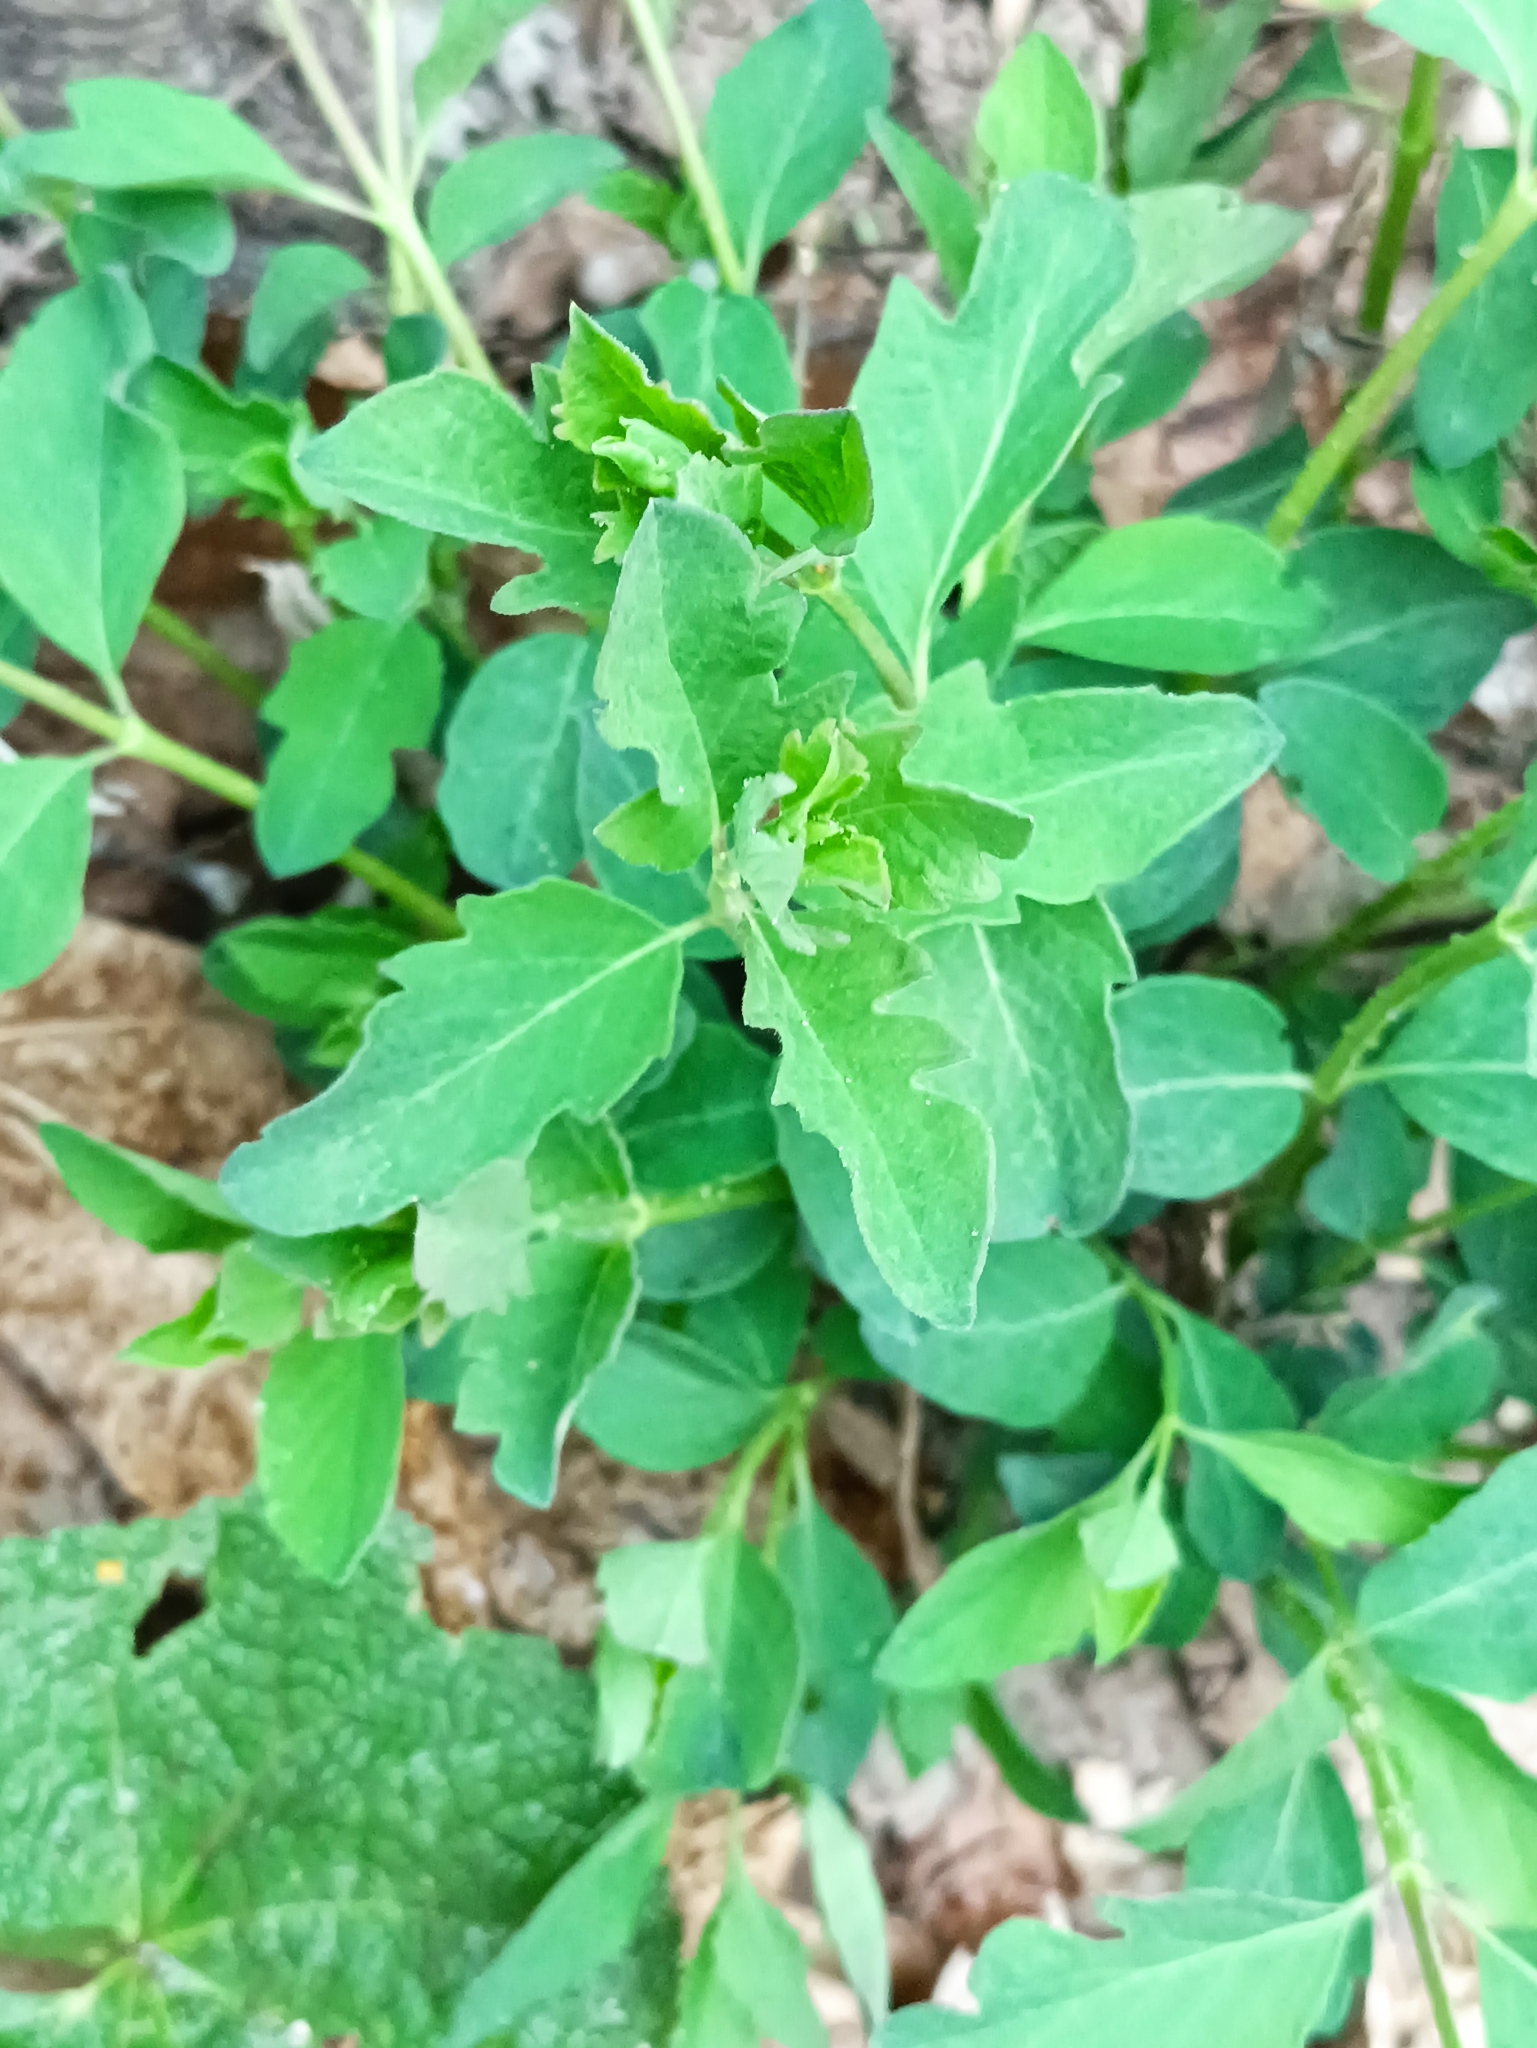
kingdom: Plantae
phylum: Tracheophyta
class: Magnoliopsida
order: Dipsacales
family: Caprifoliaceae
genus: Symphoricarpos
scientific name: Symphoricarpos albus
